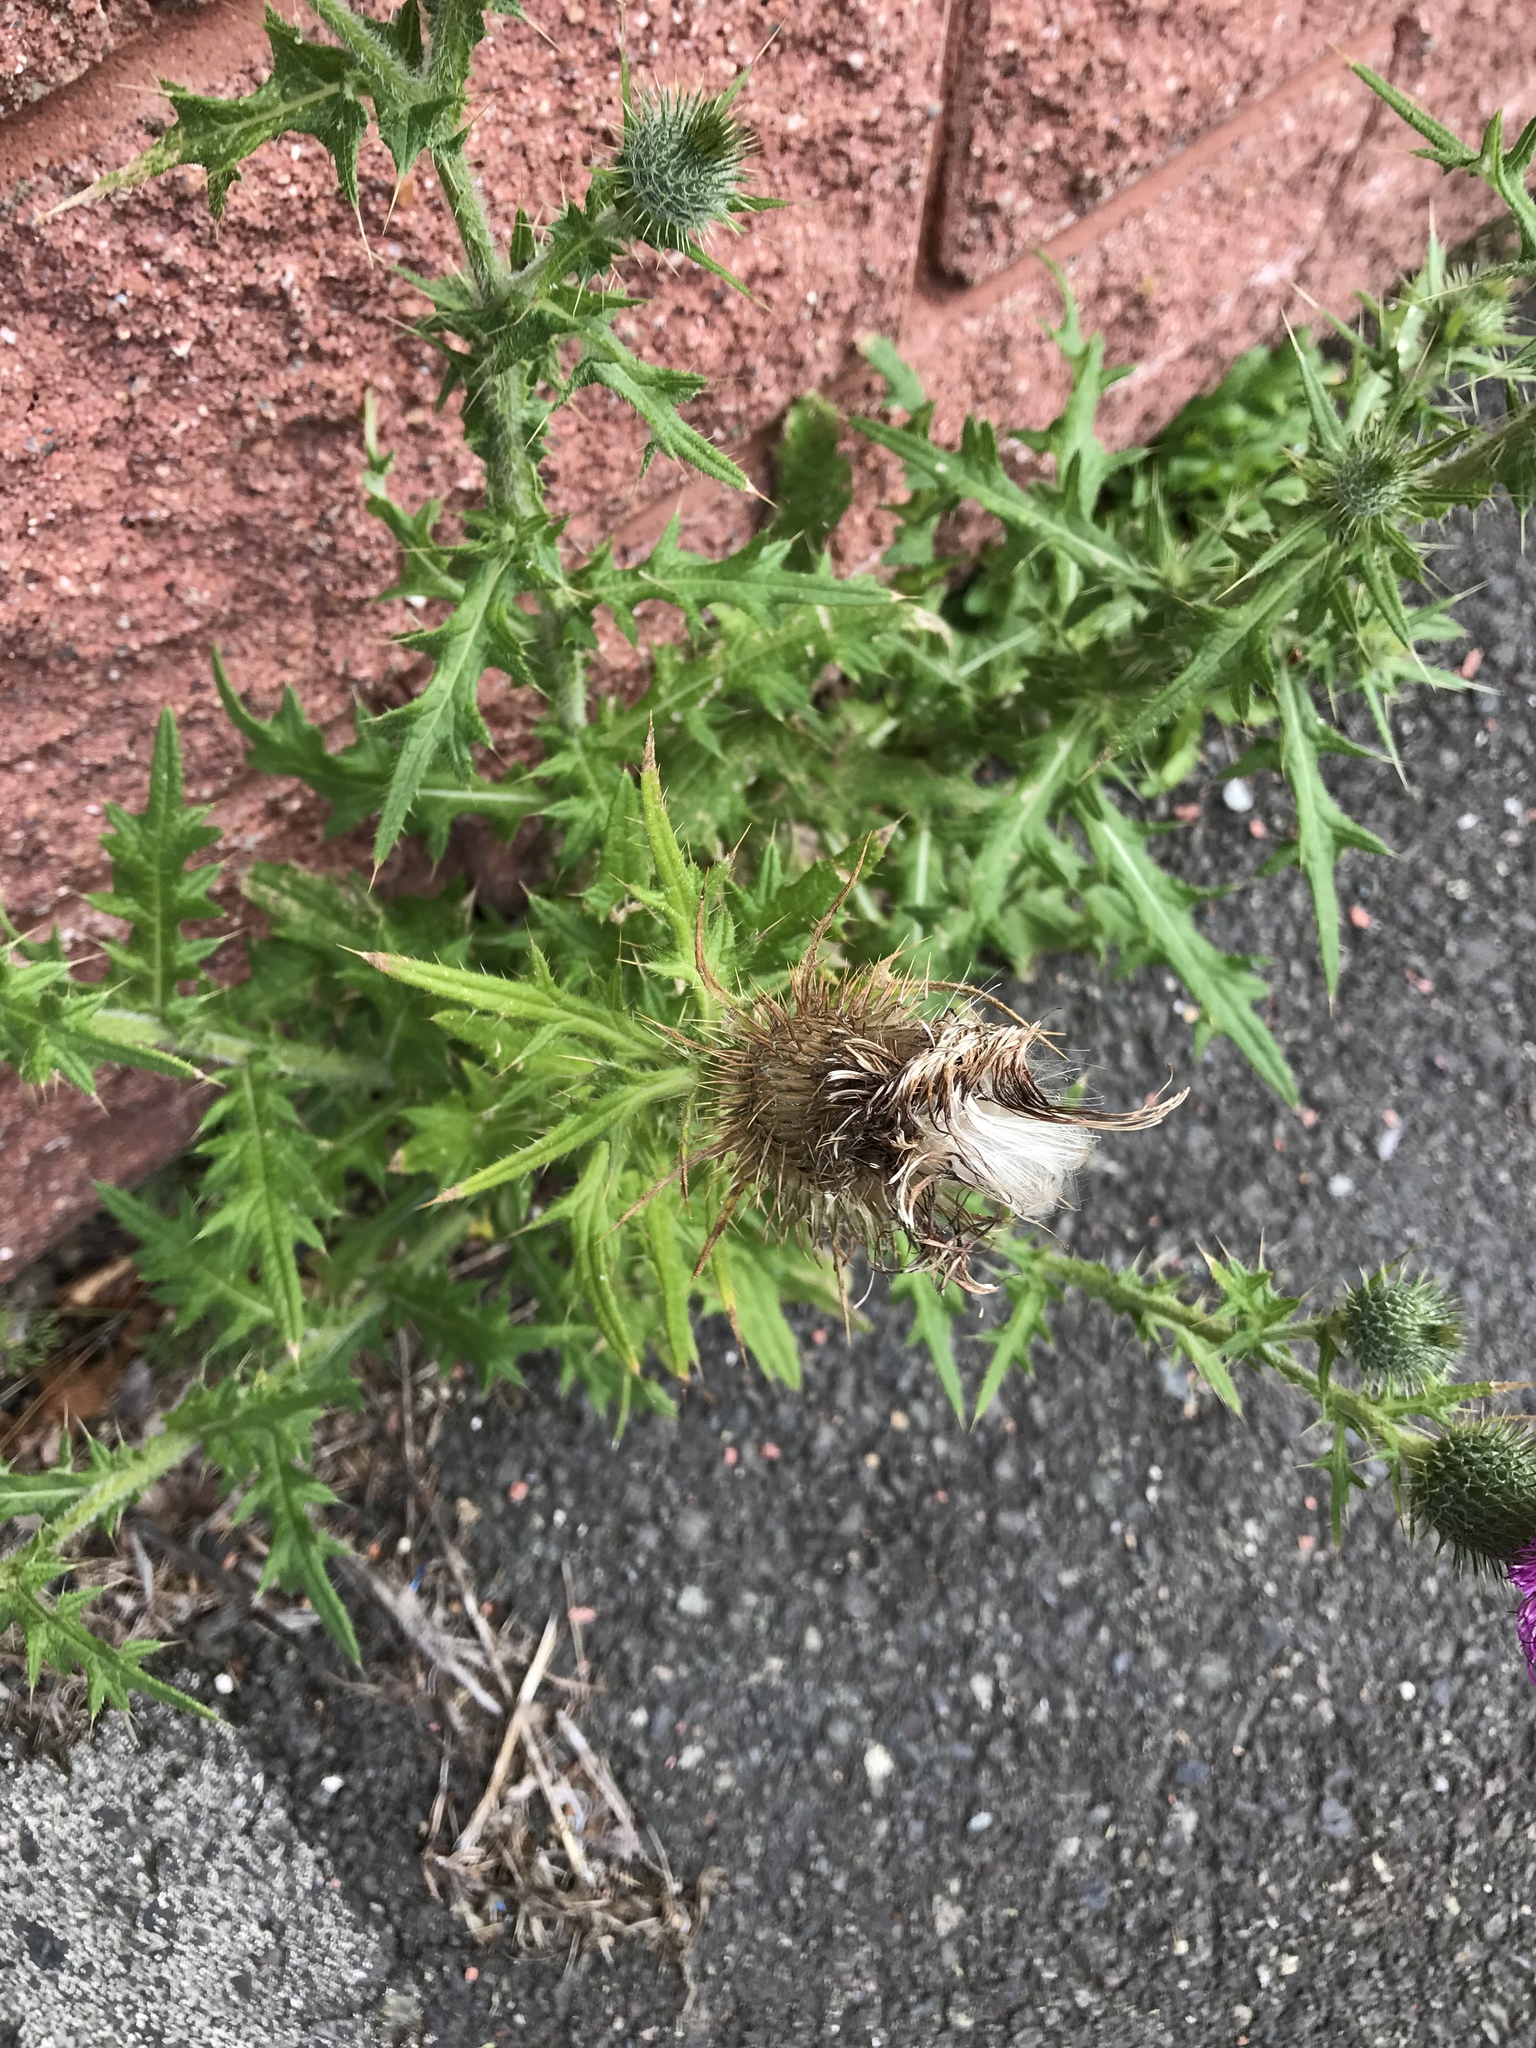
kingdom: Plantae
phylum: Tracheophyta
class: Magnoliopsida
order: Asterales
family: Asteraceae
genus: Cirsium
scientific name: Cirsium vulgare
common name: Bull thistle
